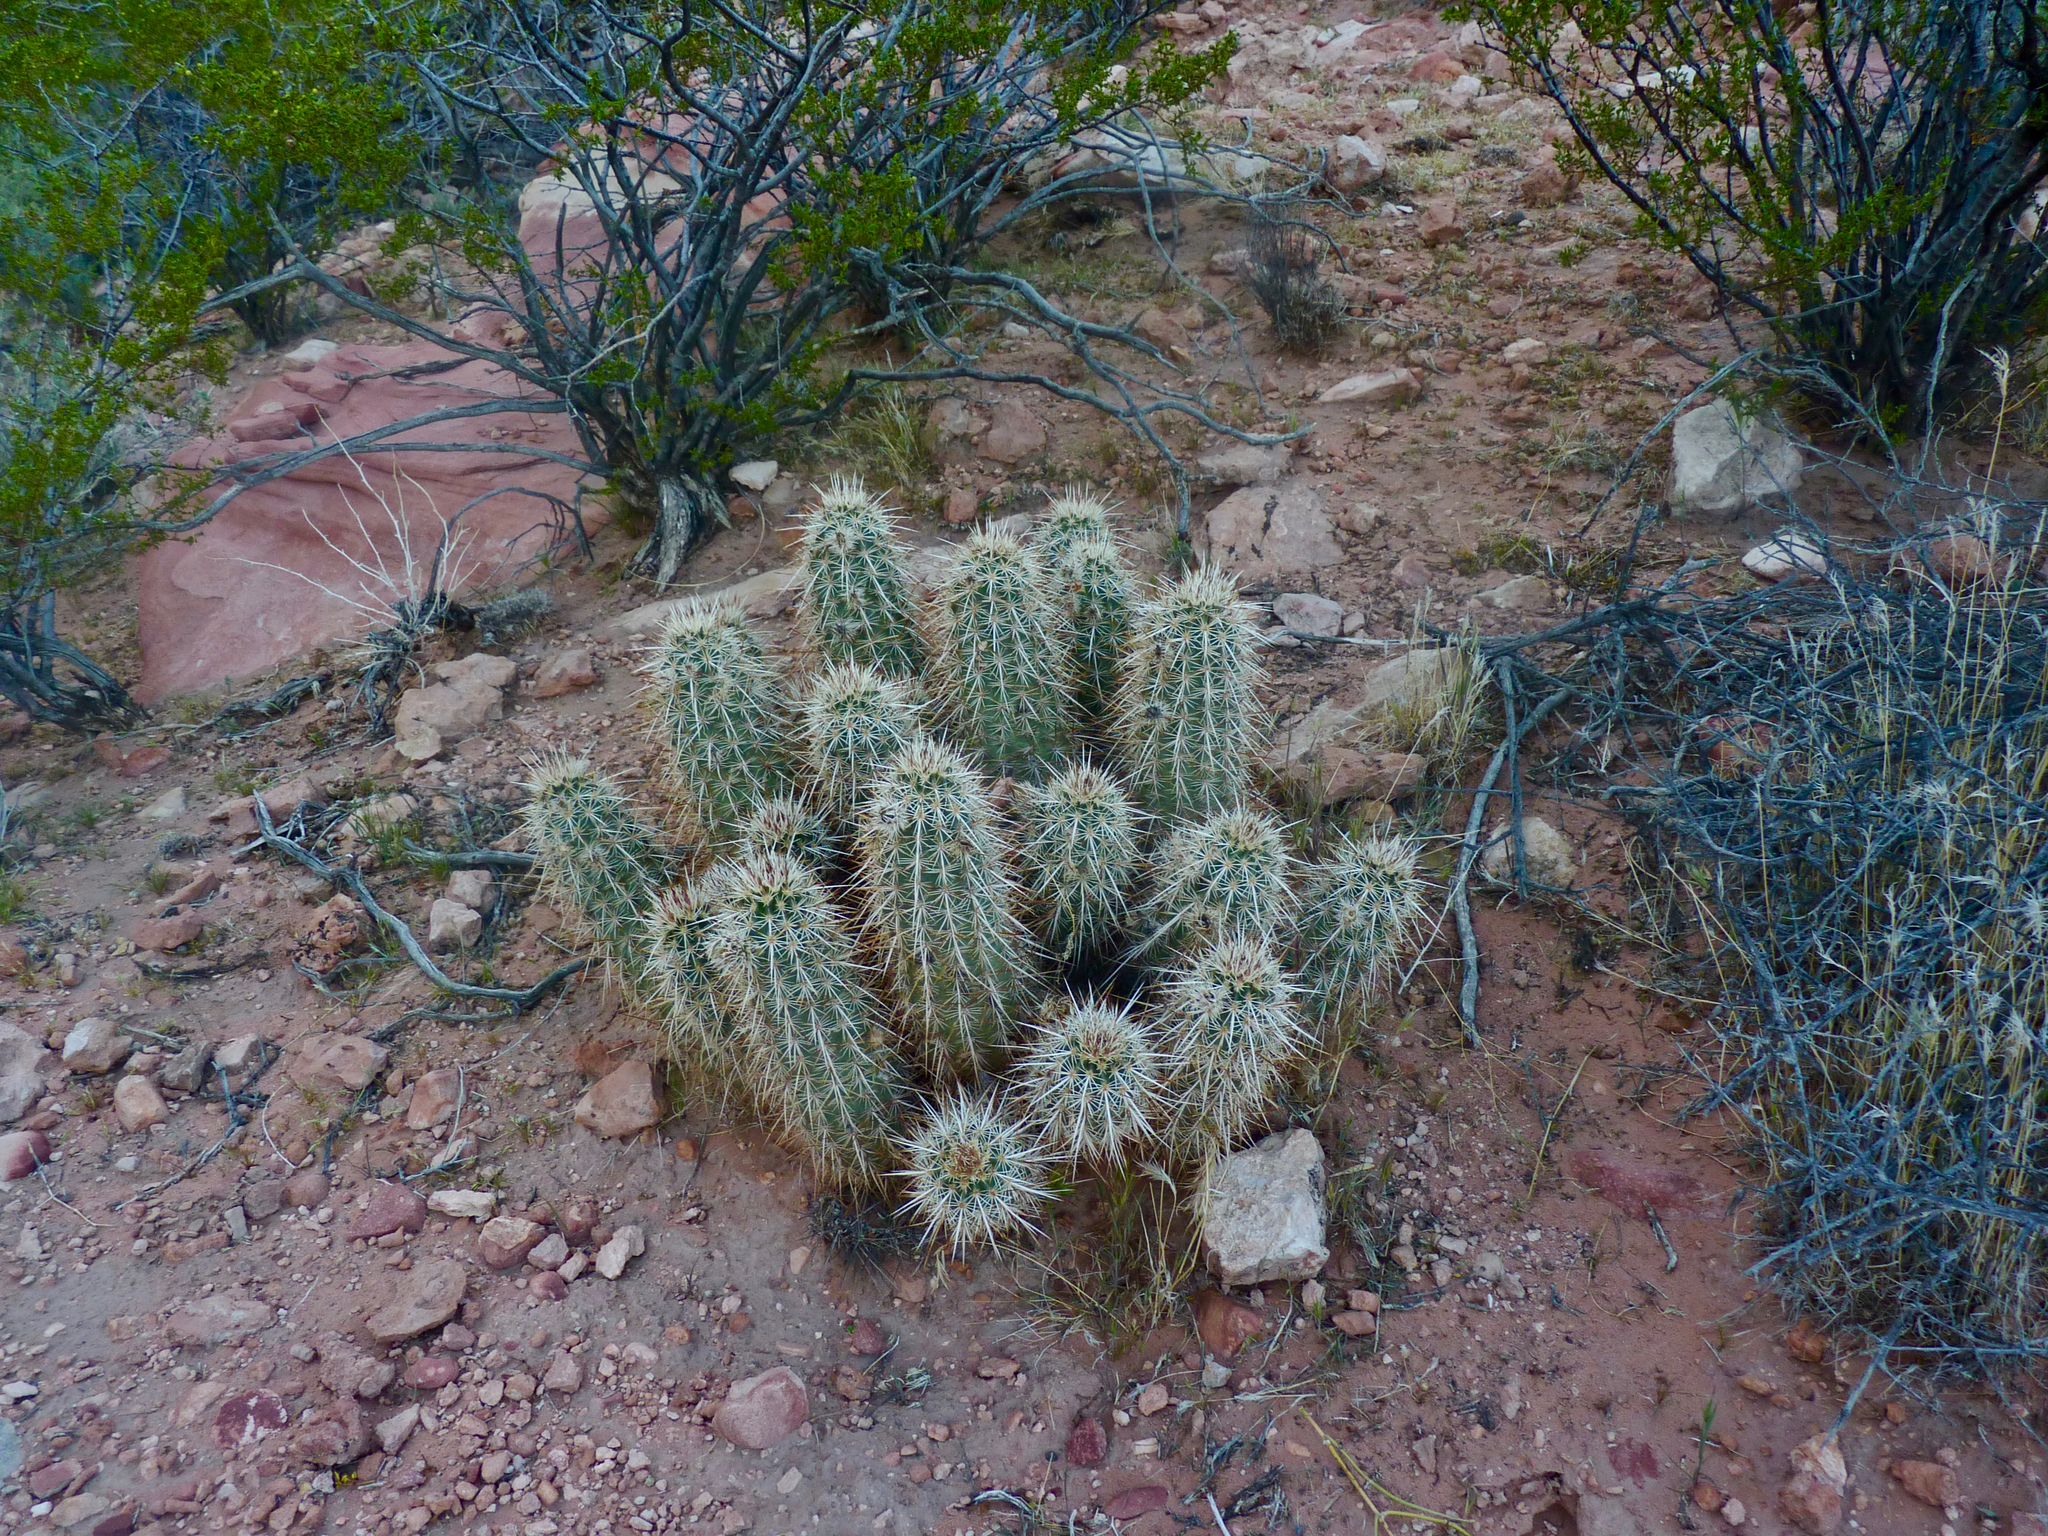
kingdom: Plantae
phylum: Tracheophyta
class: Magnoliopsida
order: Caryophyllales
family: Cactaceae
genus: Echinocereus
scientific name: Echinocereus engelmannii
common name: Engelmann's hedgehog cactus
